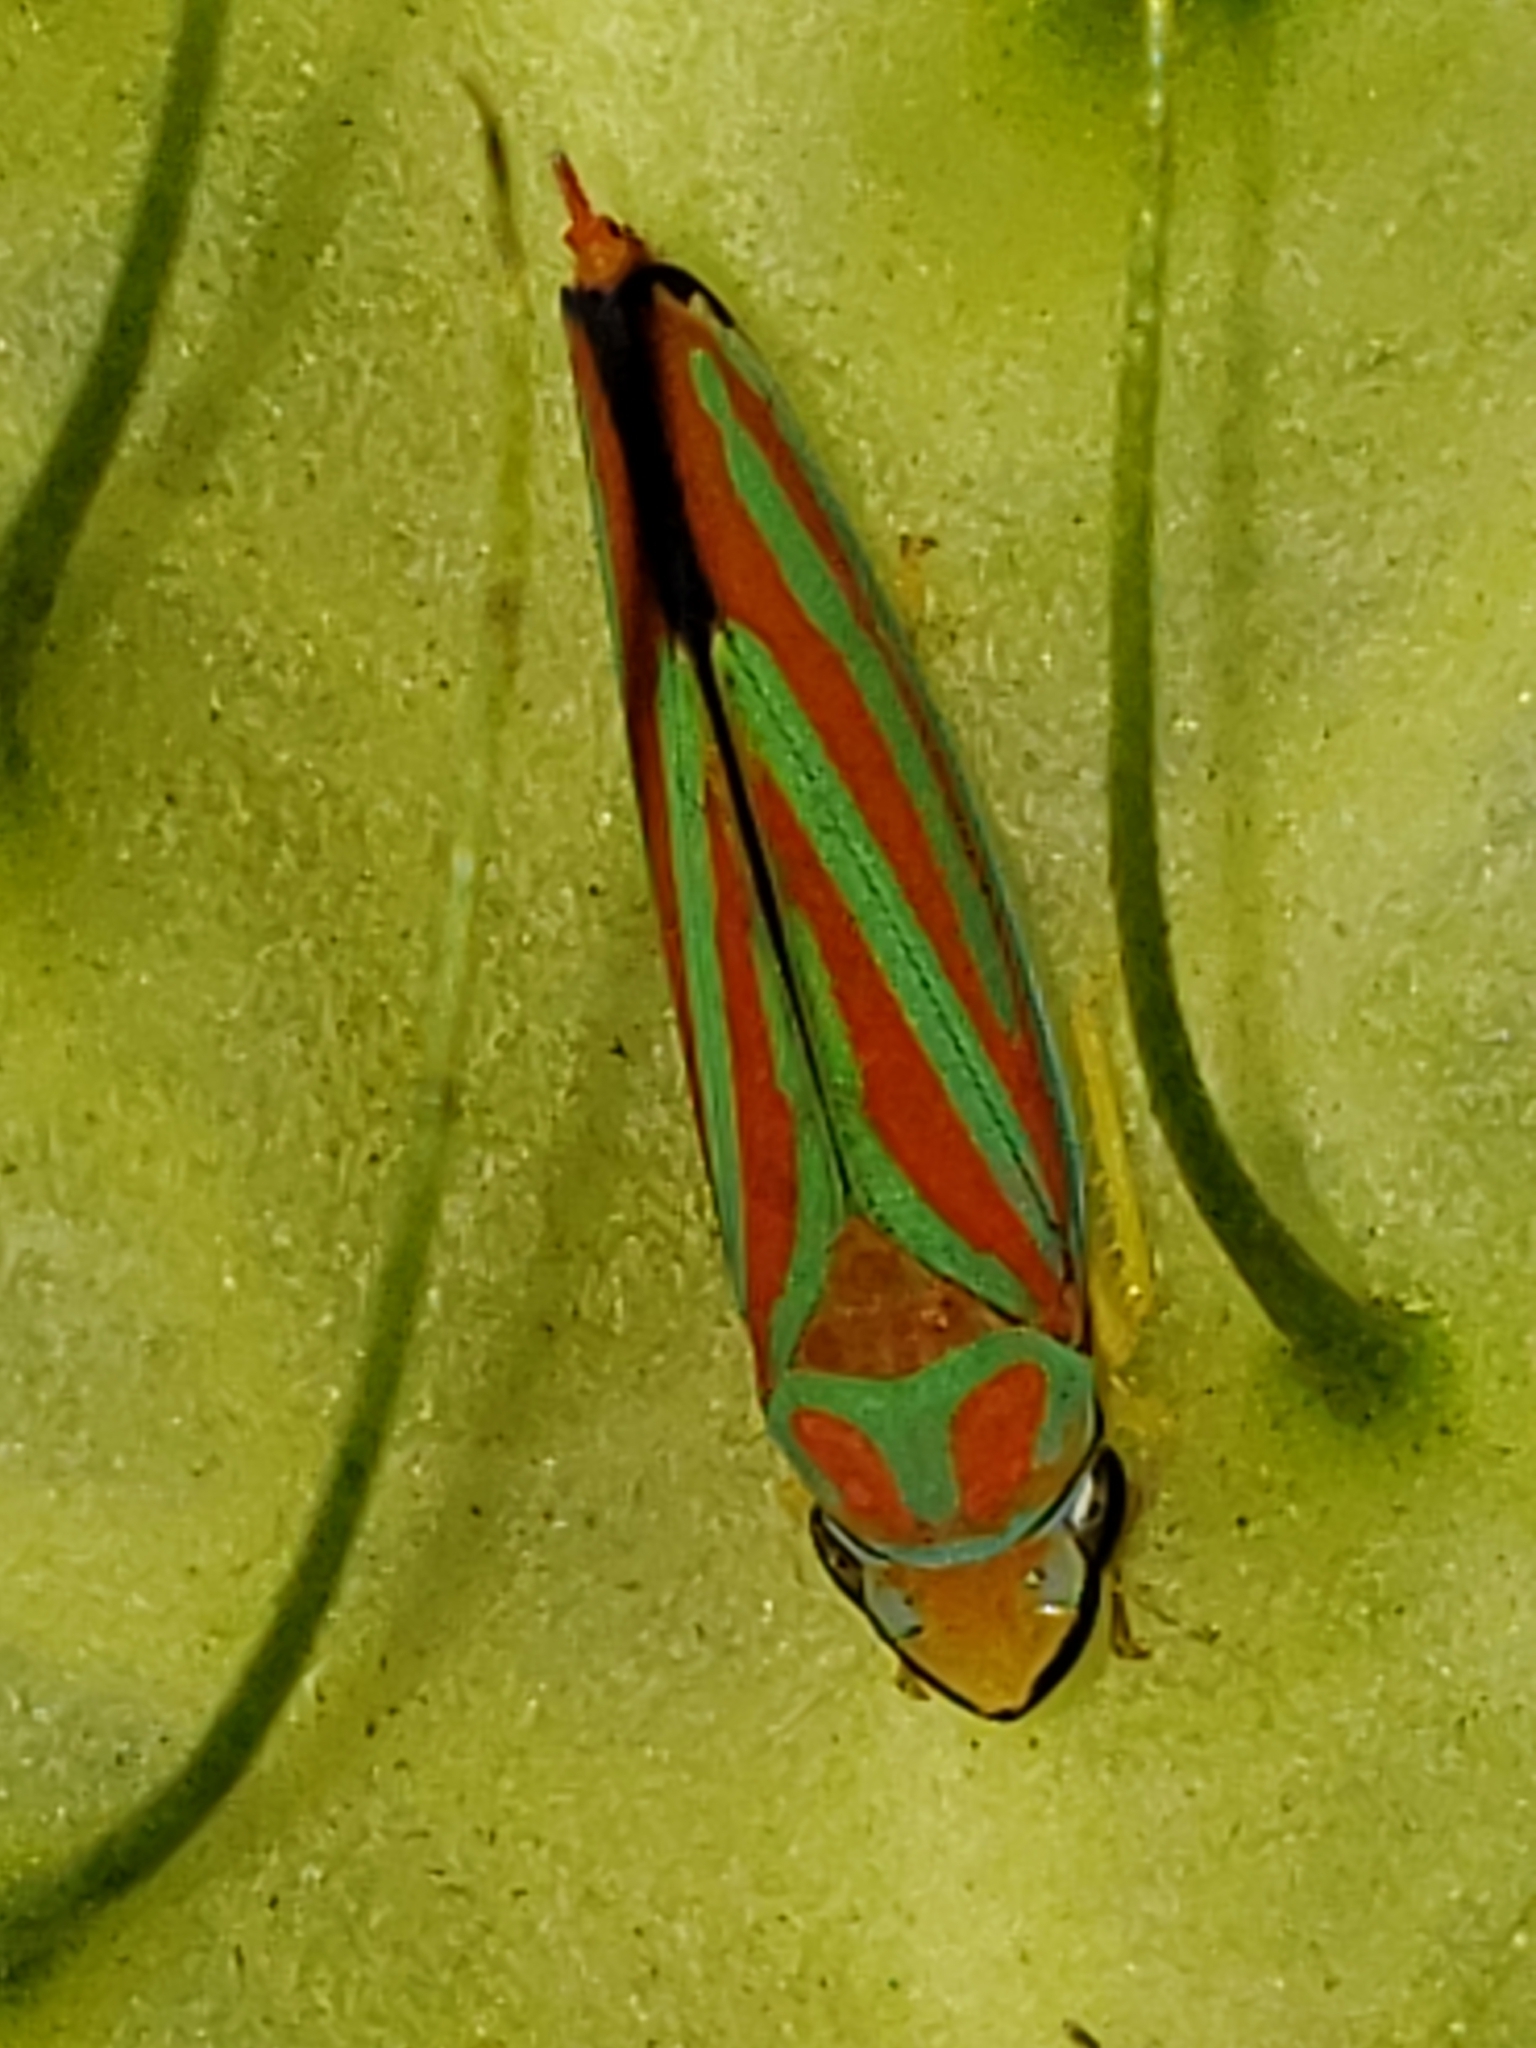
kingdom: Animalia
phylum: Arthropoda
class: Insecta
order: Hemiptera
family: Cicadellidae
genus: Graphocephala
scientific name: Graphocephala coccinea
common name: Candy-striped leafhopper
